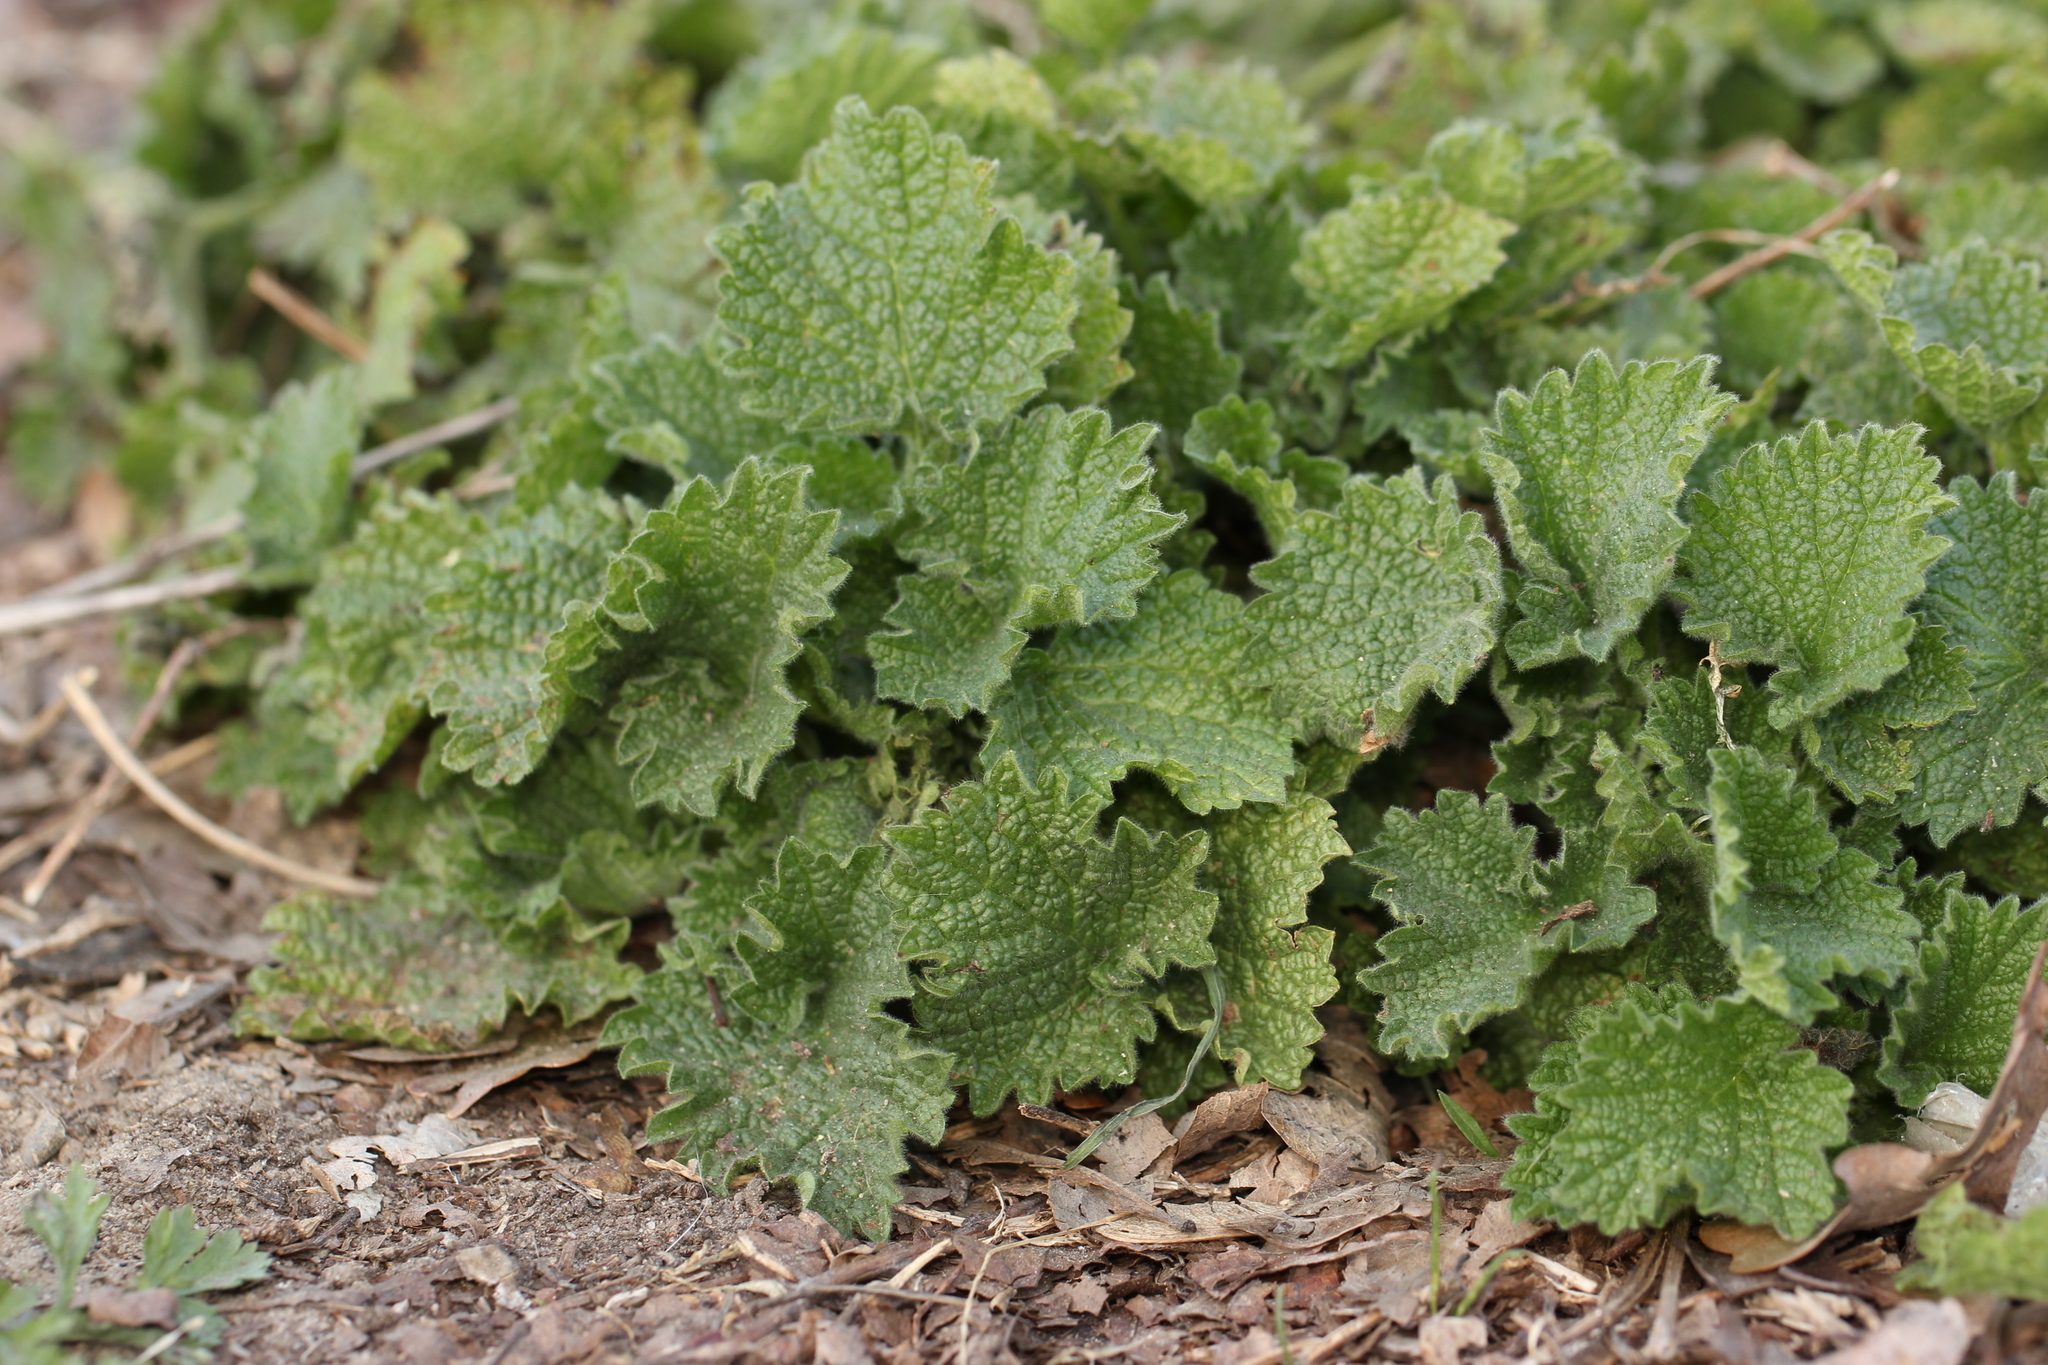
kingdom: Plantae
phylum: Tracheophyta
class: Magnoliopsida
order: Lamiales
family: Lamiaceae
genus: Ballota
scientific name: Ballota nigra
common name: Black horehound
